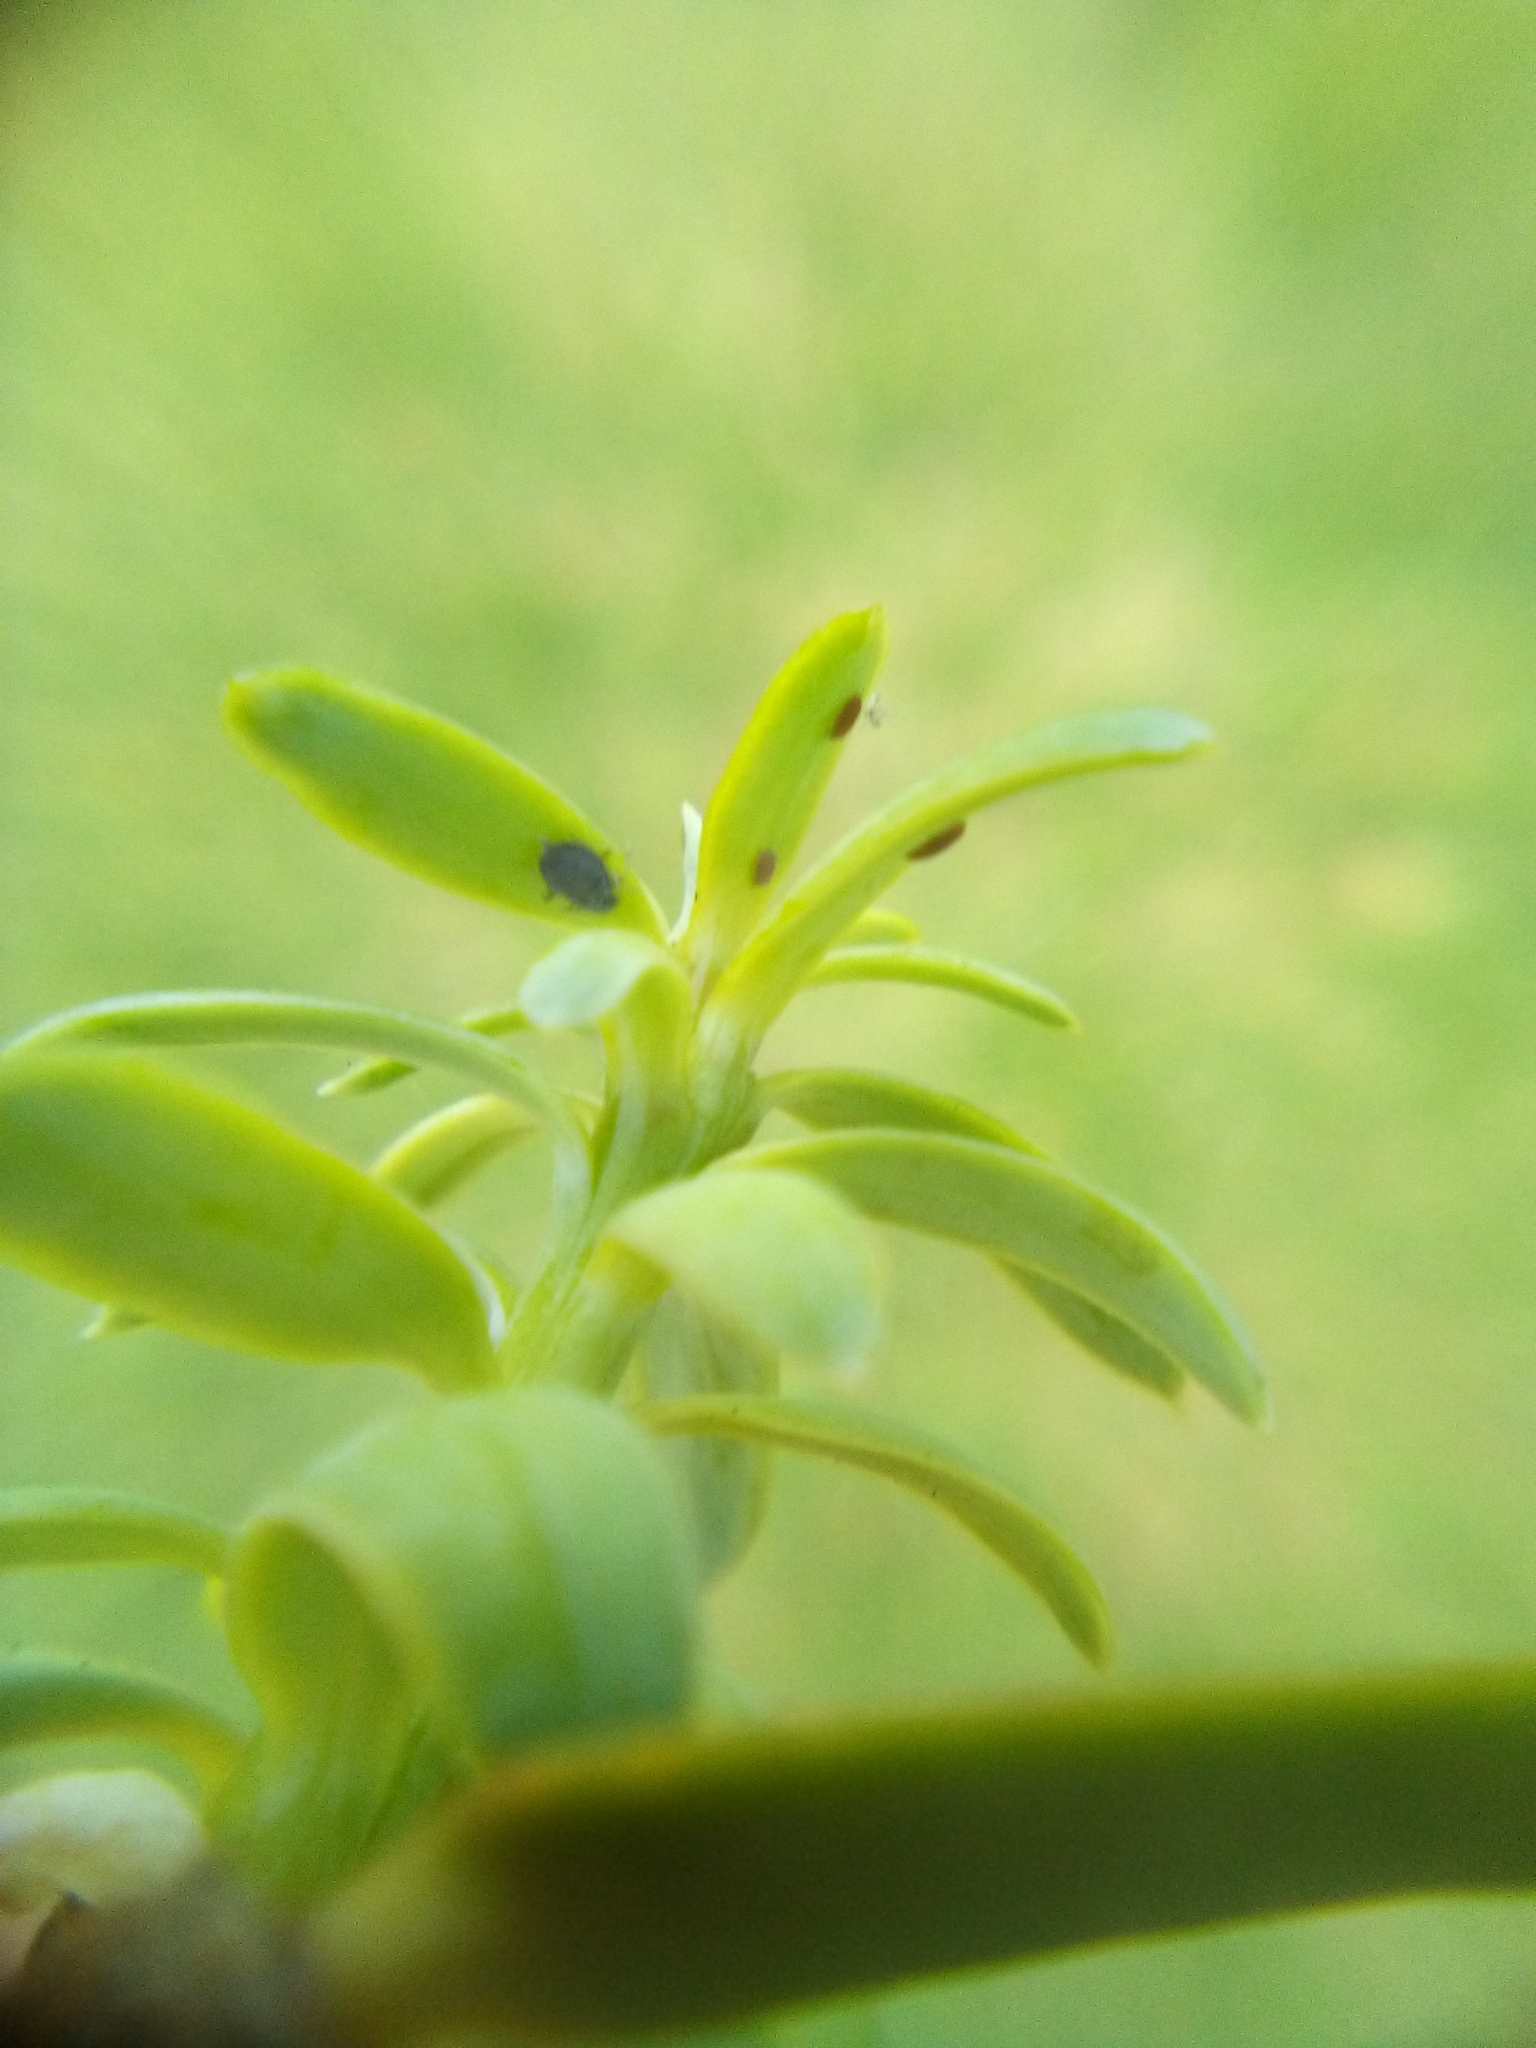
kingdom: Animalia
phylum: Arthropoda
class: Insecta
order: Hemiptera
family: Aphididae
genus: Neophyllaphis
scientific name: Neophyllaphis totarae
